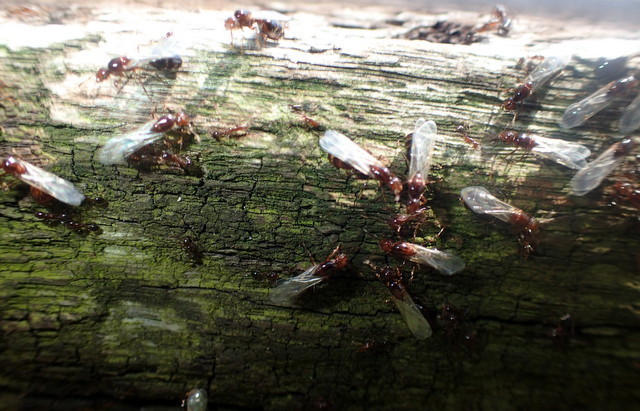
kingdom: Animalia
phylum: Arthropoda
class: Insecta
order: Hymenoptera
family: Formicidae
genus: Solenopsis
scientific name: Solenopsis invicta
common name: Red imported fire ant
